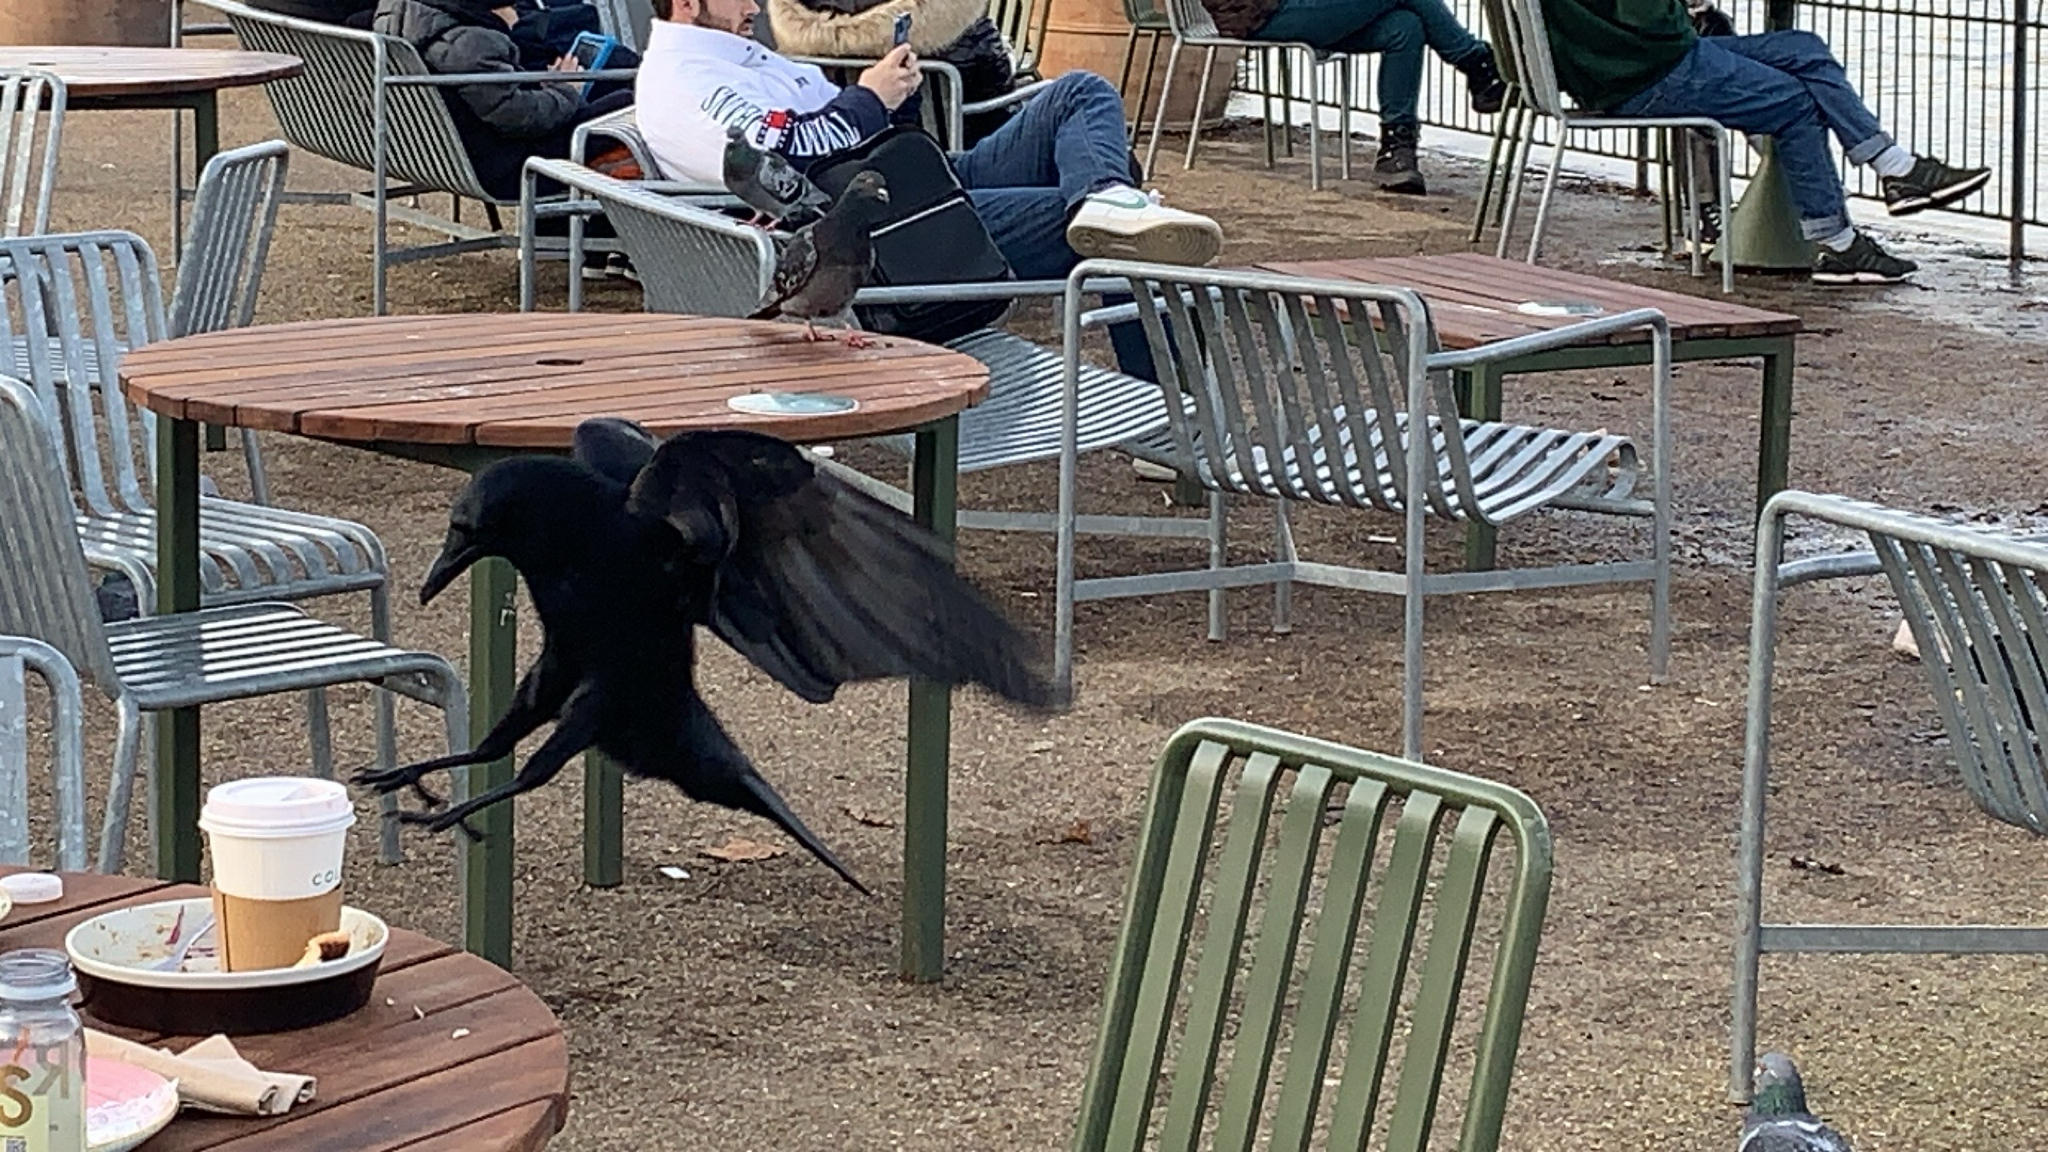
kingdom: Animalia
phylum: Chordata
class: Aves
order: Passeriformes
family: Corvidae
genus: Corvus
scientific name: Corvus corone
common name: Carrion crow
